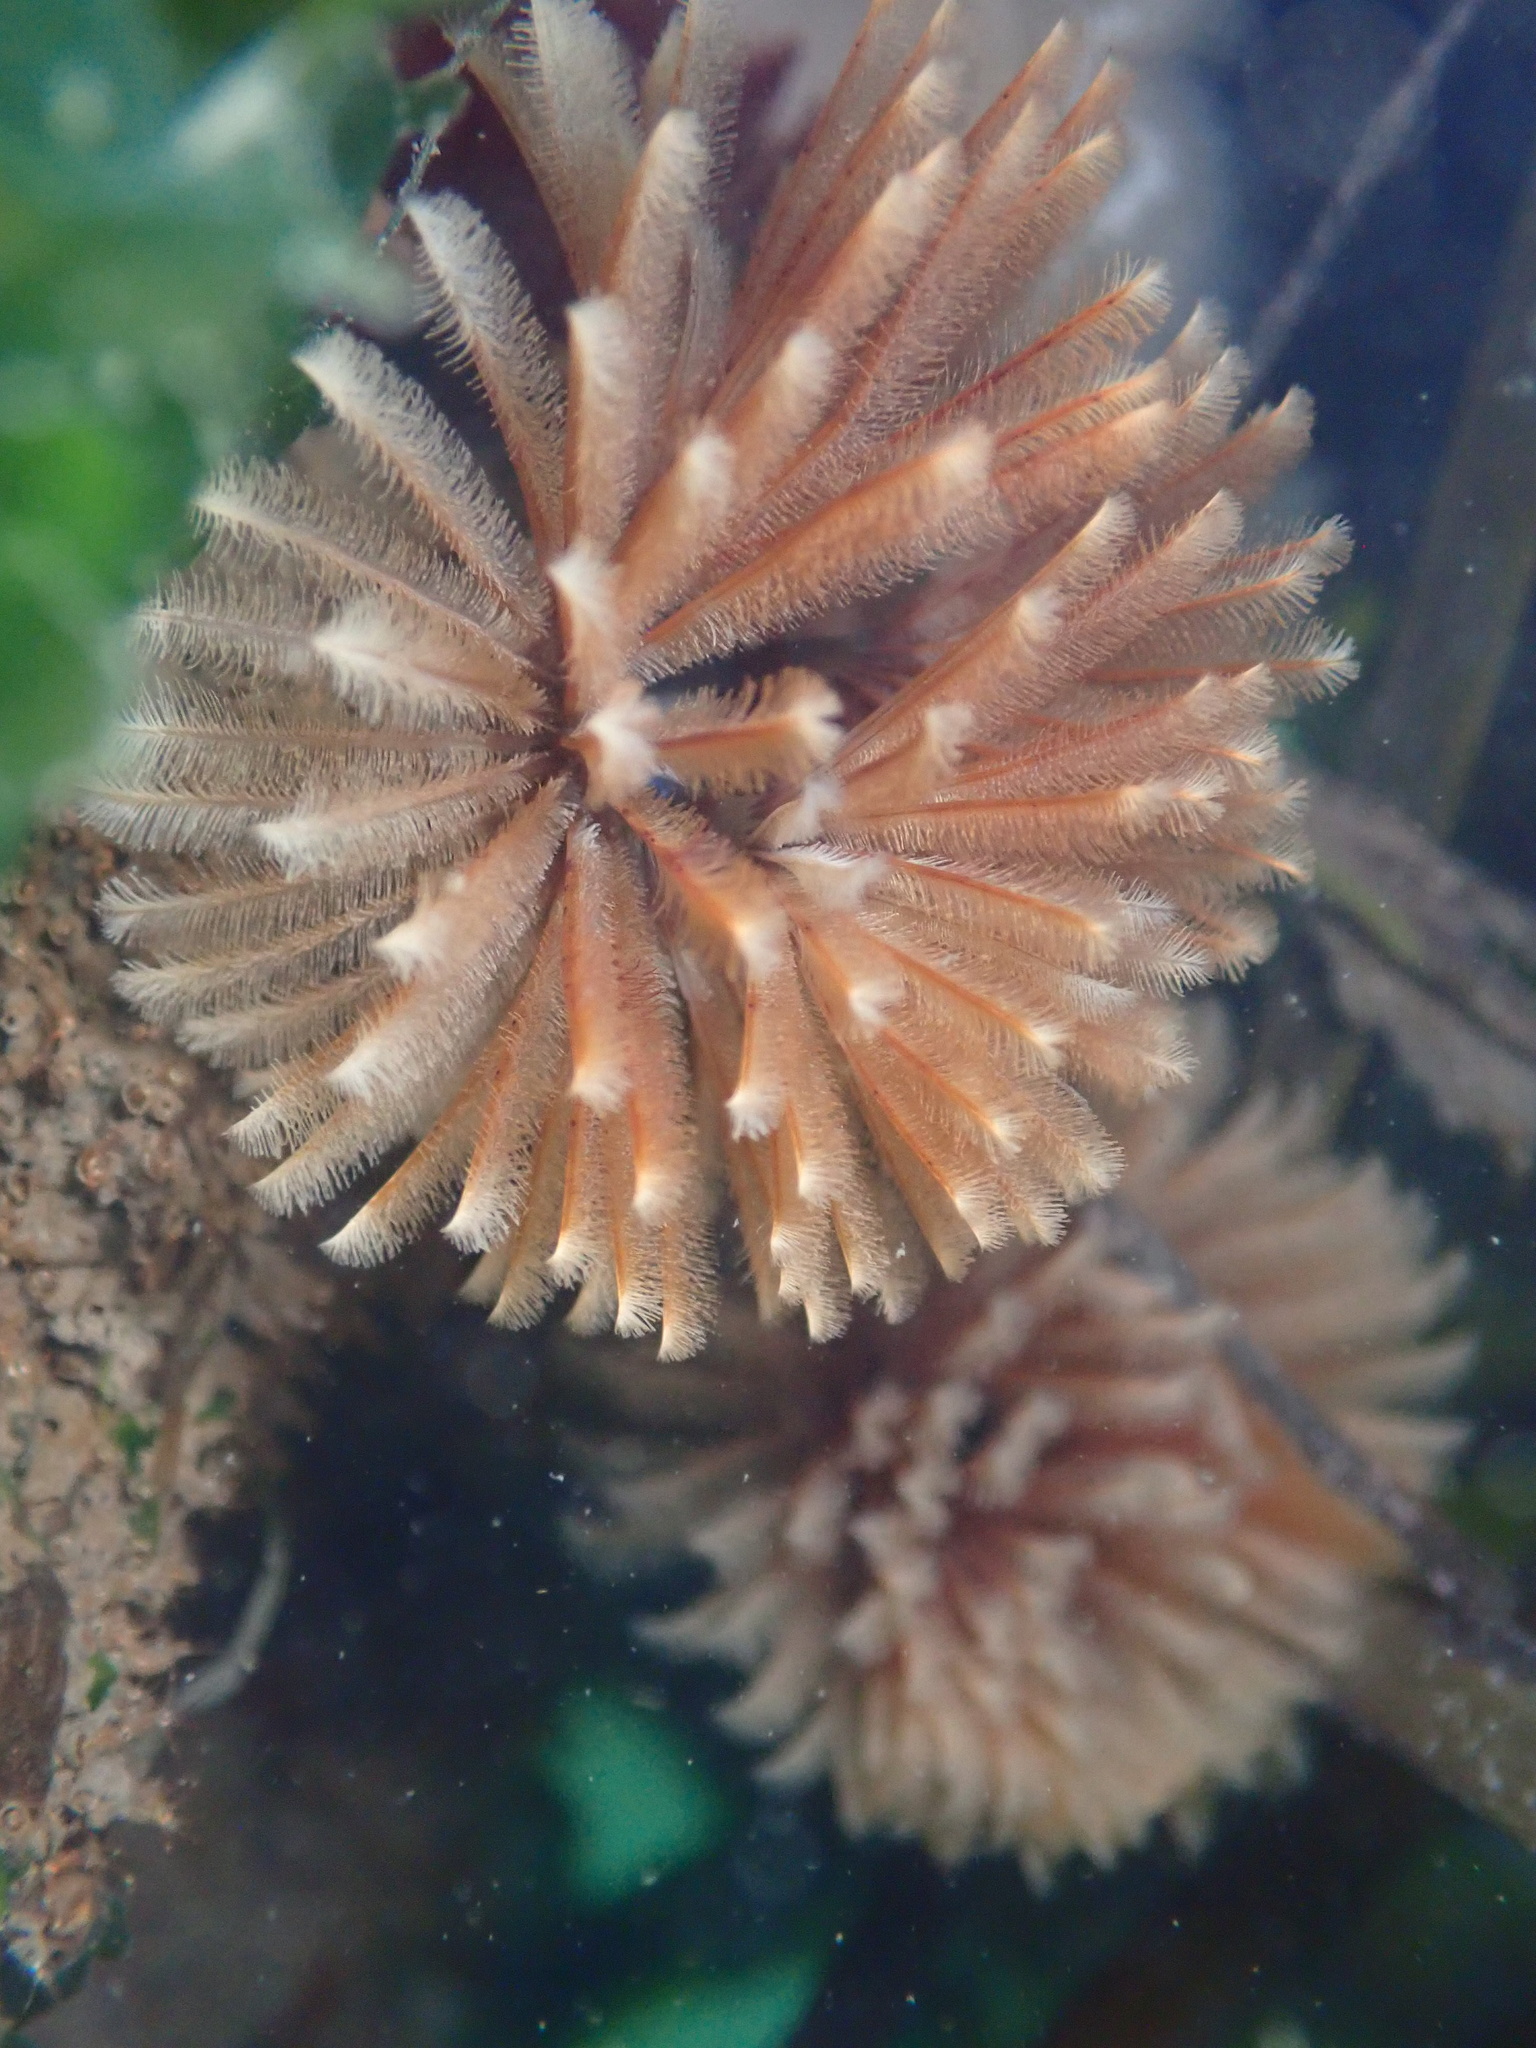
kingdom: Animalia
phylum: Annelida
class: Polychaeta
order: Sabellida
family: Sabellidae
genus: Eudistylia
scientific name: Eudistylia polymorpha
